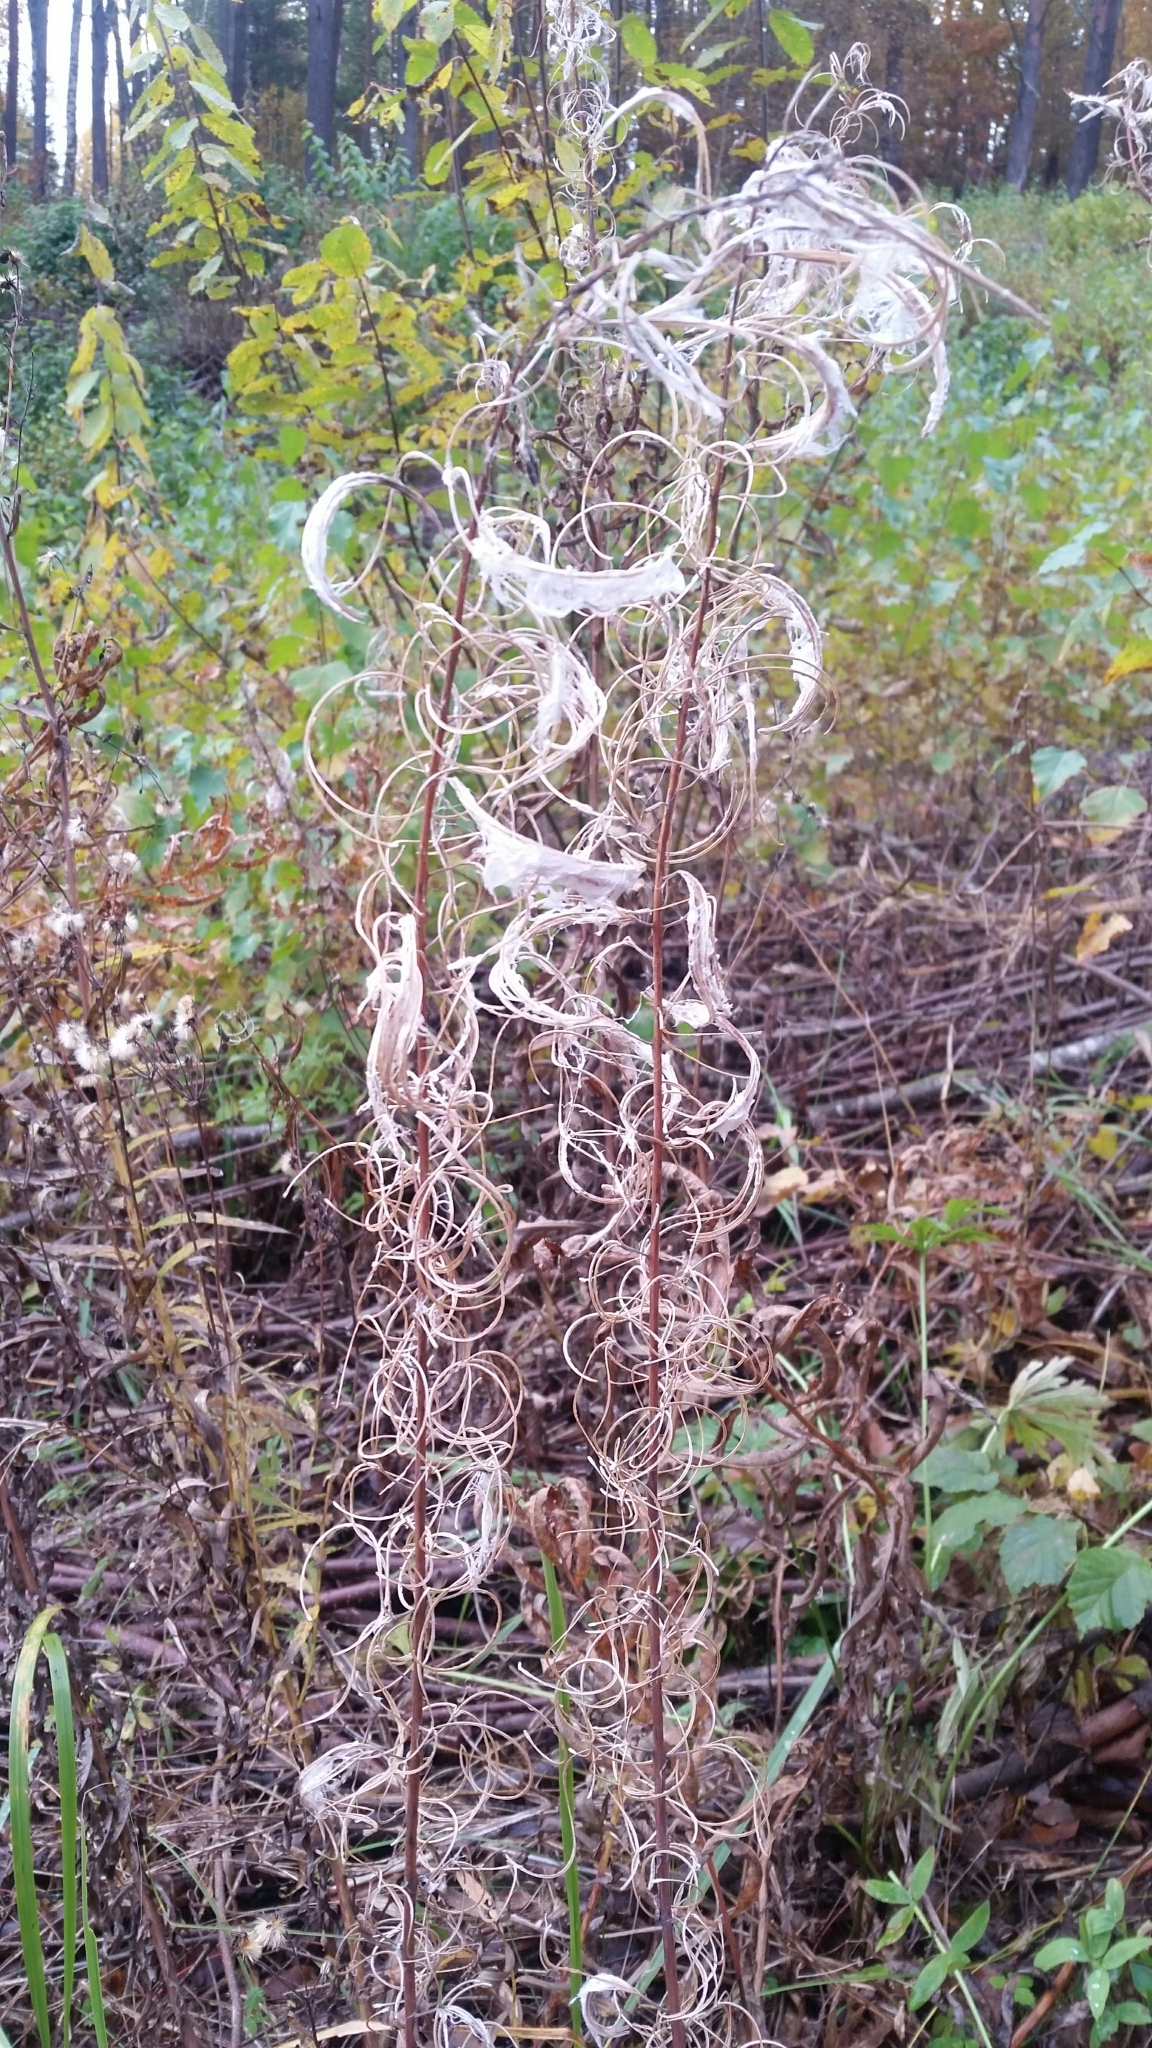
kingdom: Plantae
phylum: Tracheophyta
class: Magnoliopsida
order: Myrtales
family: Onagraceae
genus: Chamaenerion
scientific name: Chamaenerion angustifolium
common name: Fireweed
